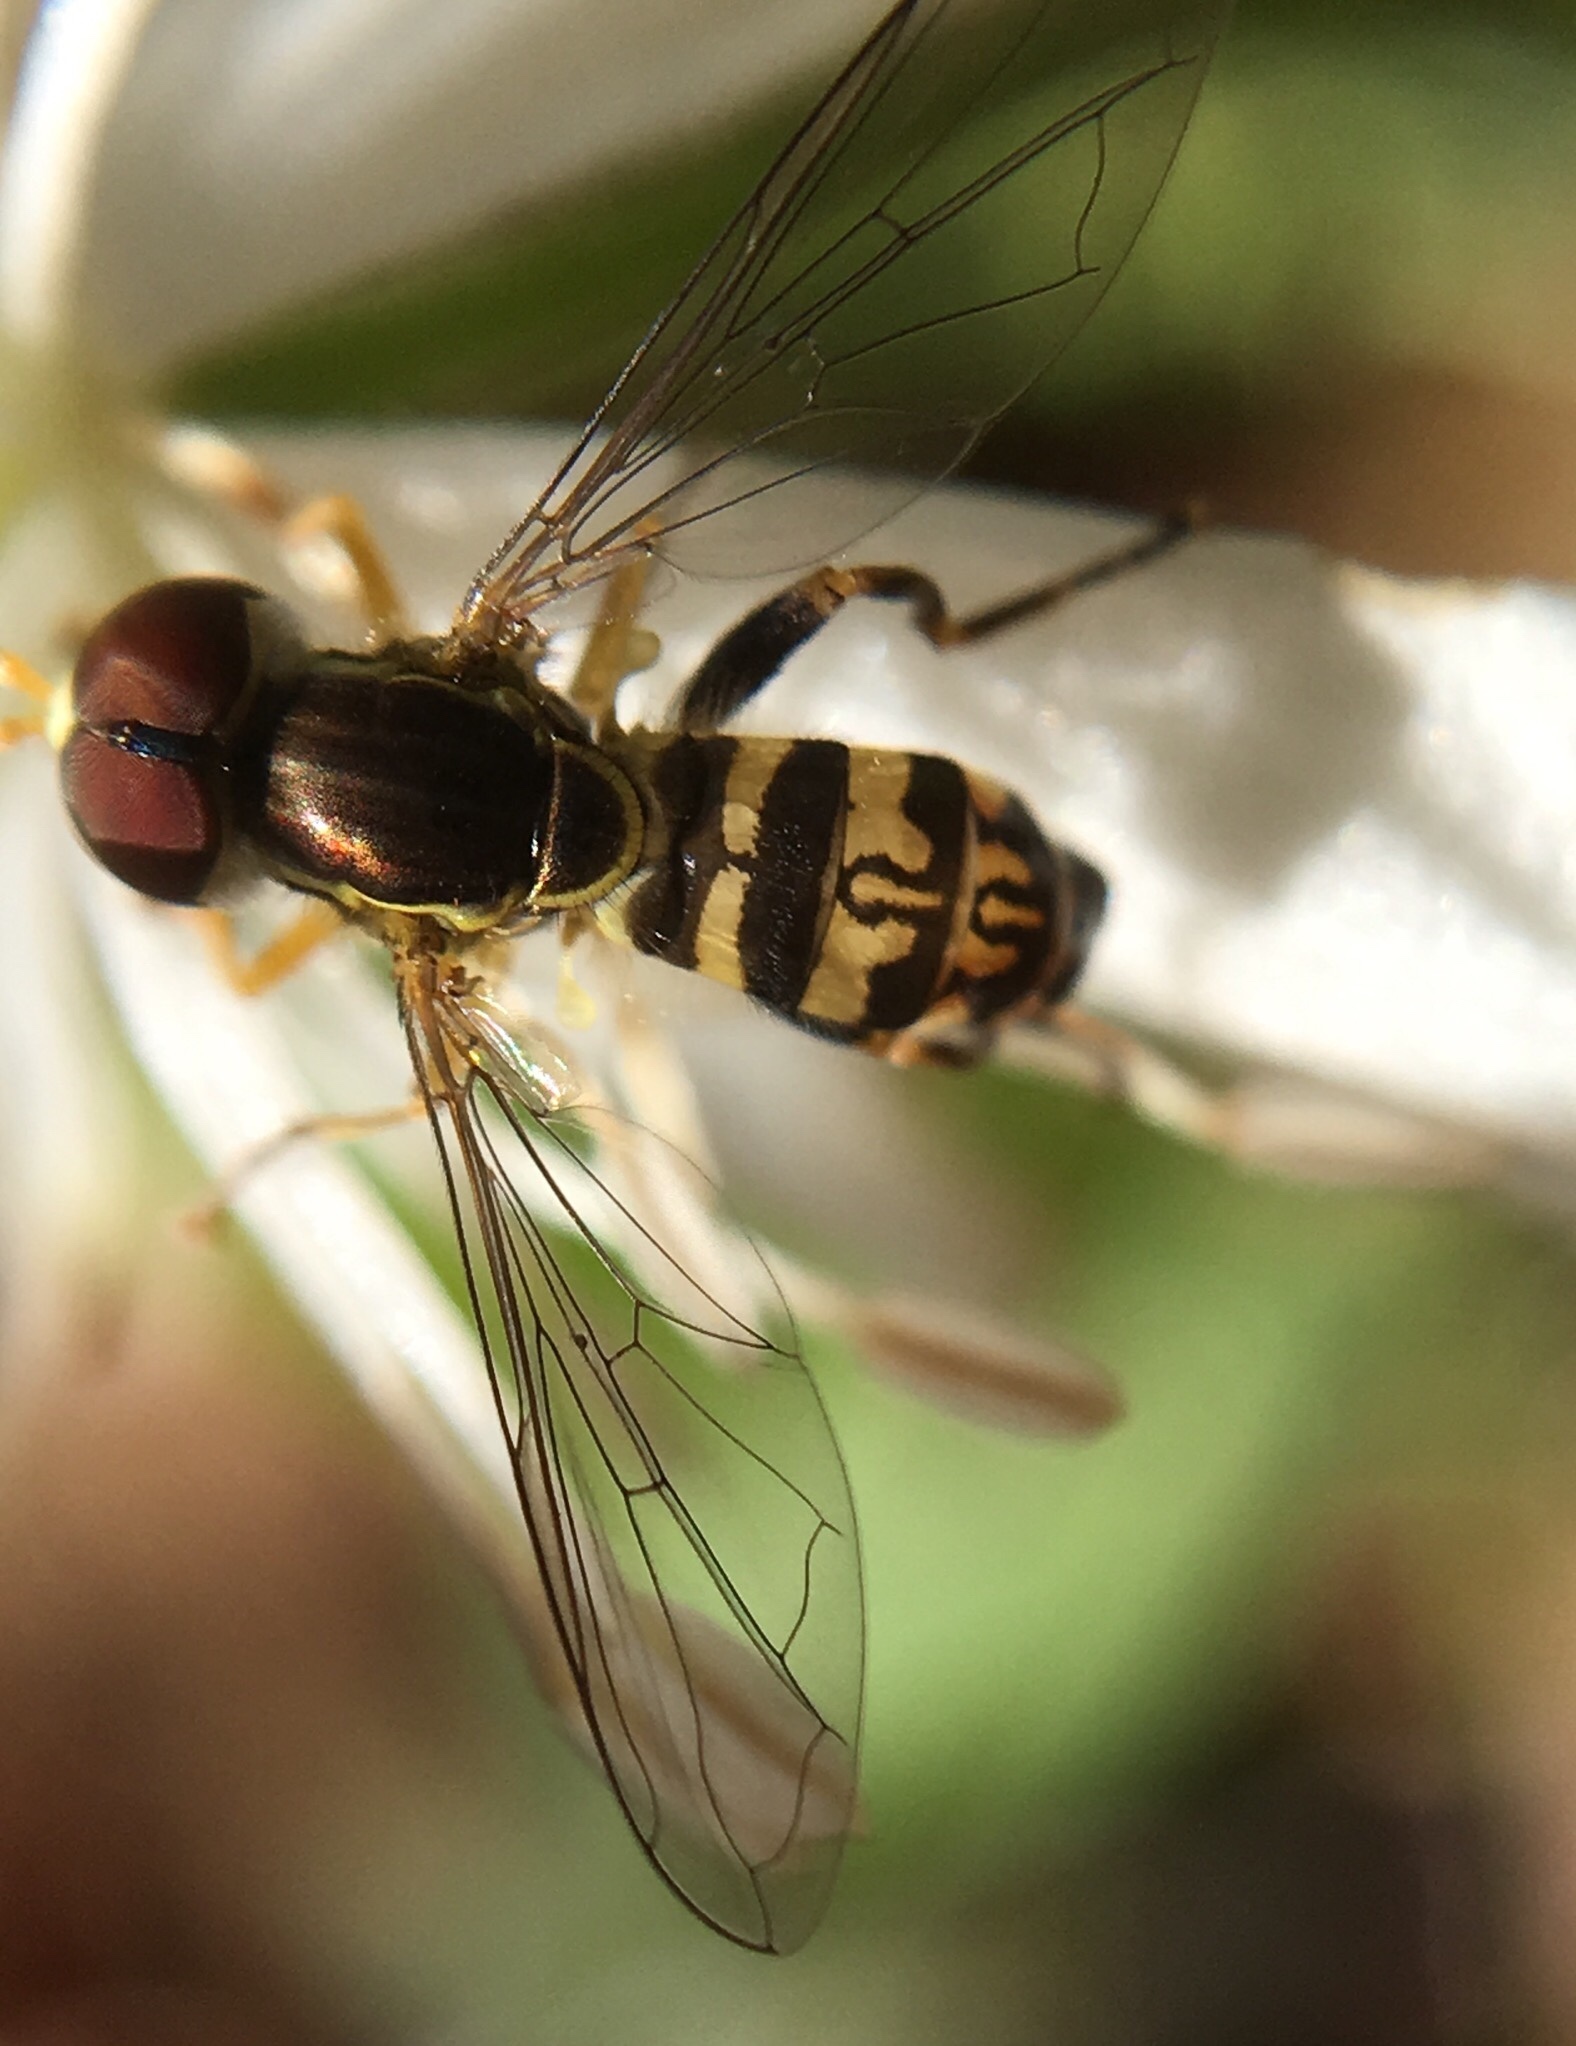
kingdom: Animalia
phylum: Arthropoda
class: Insecta
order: Diptera
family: Syrphidae
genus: Toxomerus
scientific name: Toxomerus geminatus
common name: Eastern calligrapher
